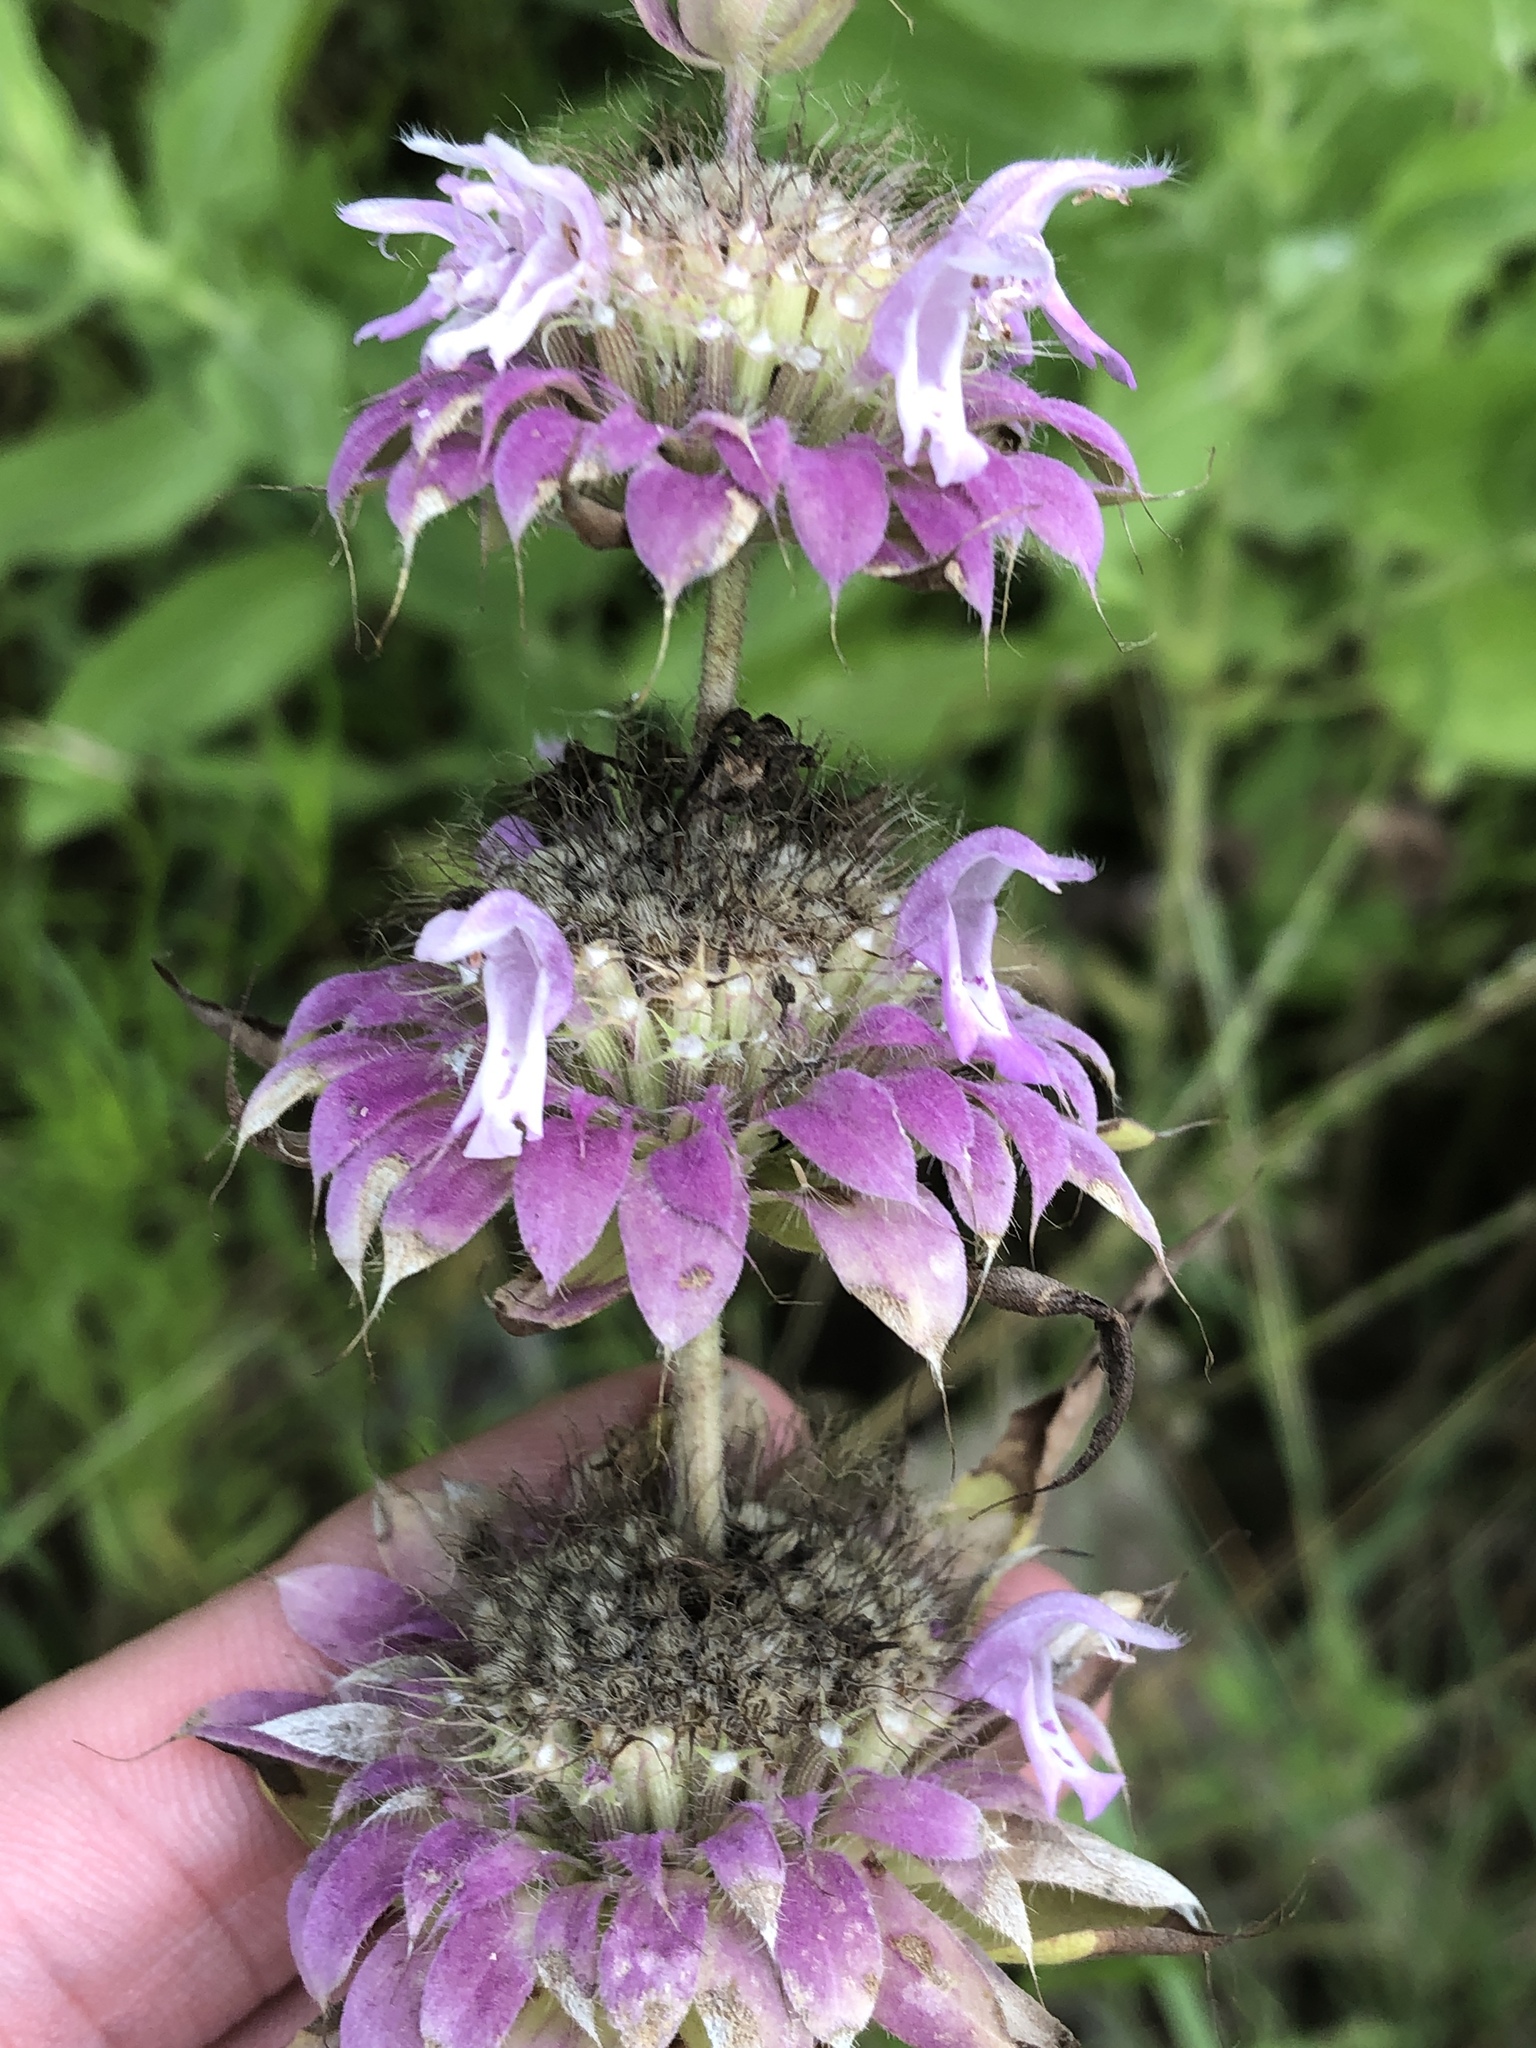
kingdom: Plantae
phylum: Tracheophyta
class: Magnoliopsida
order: Lamiales
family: Lamiaceae
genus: Monarda
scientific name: Monarda citriodora
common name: Lemon beebalm
